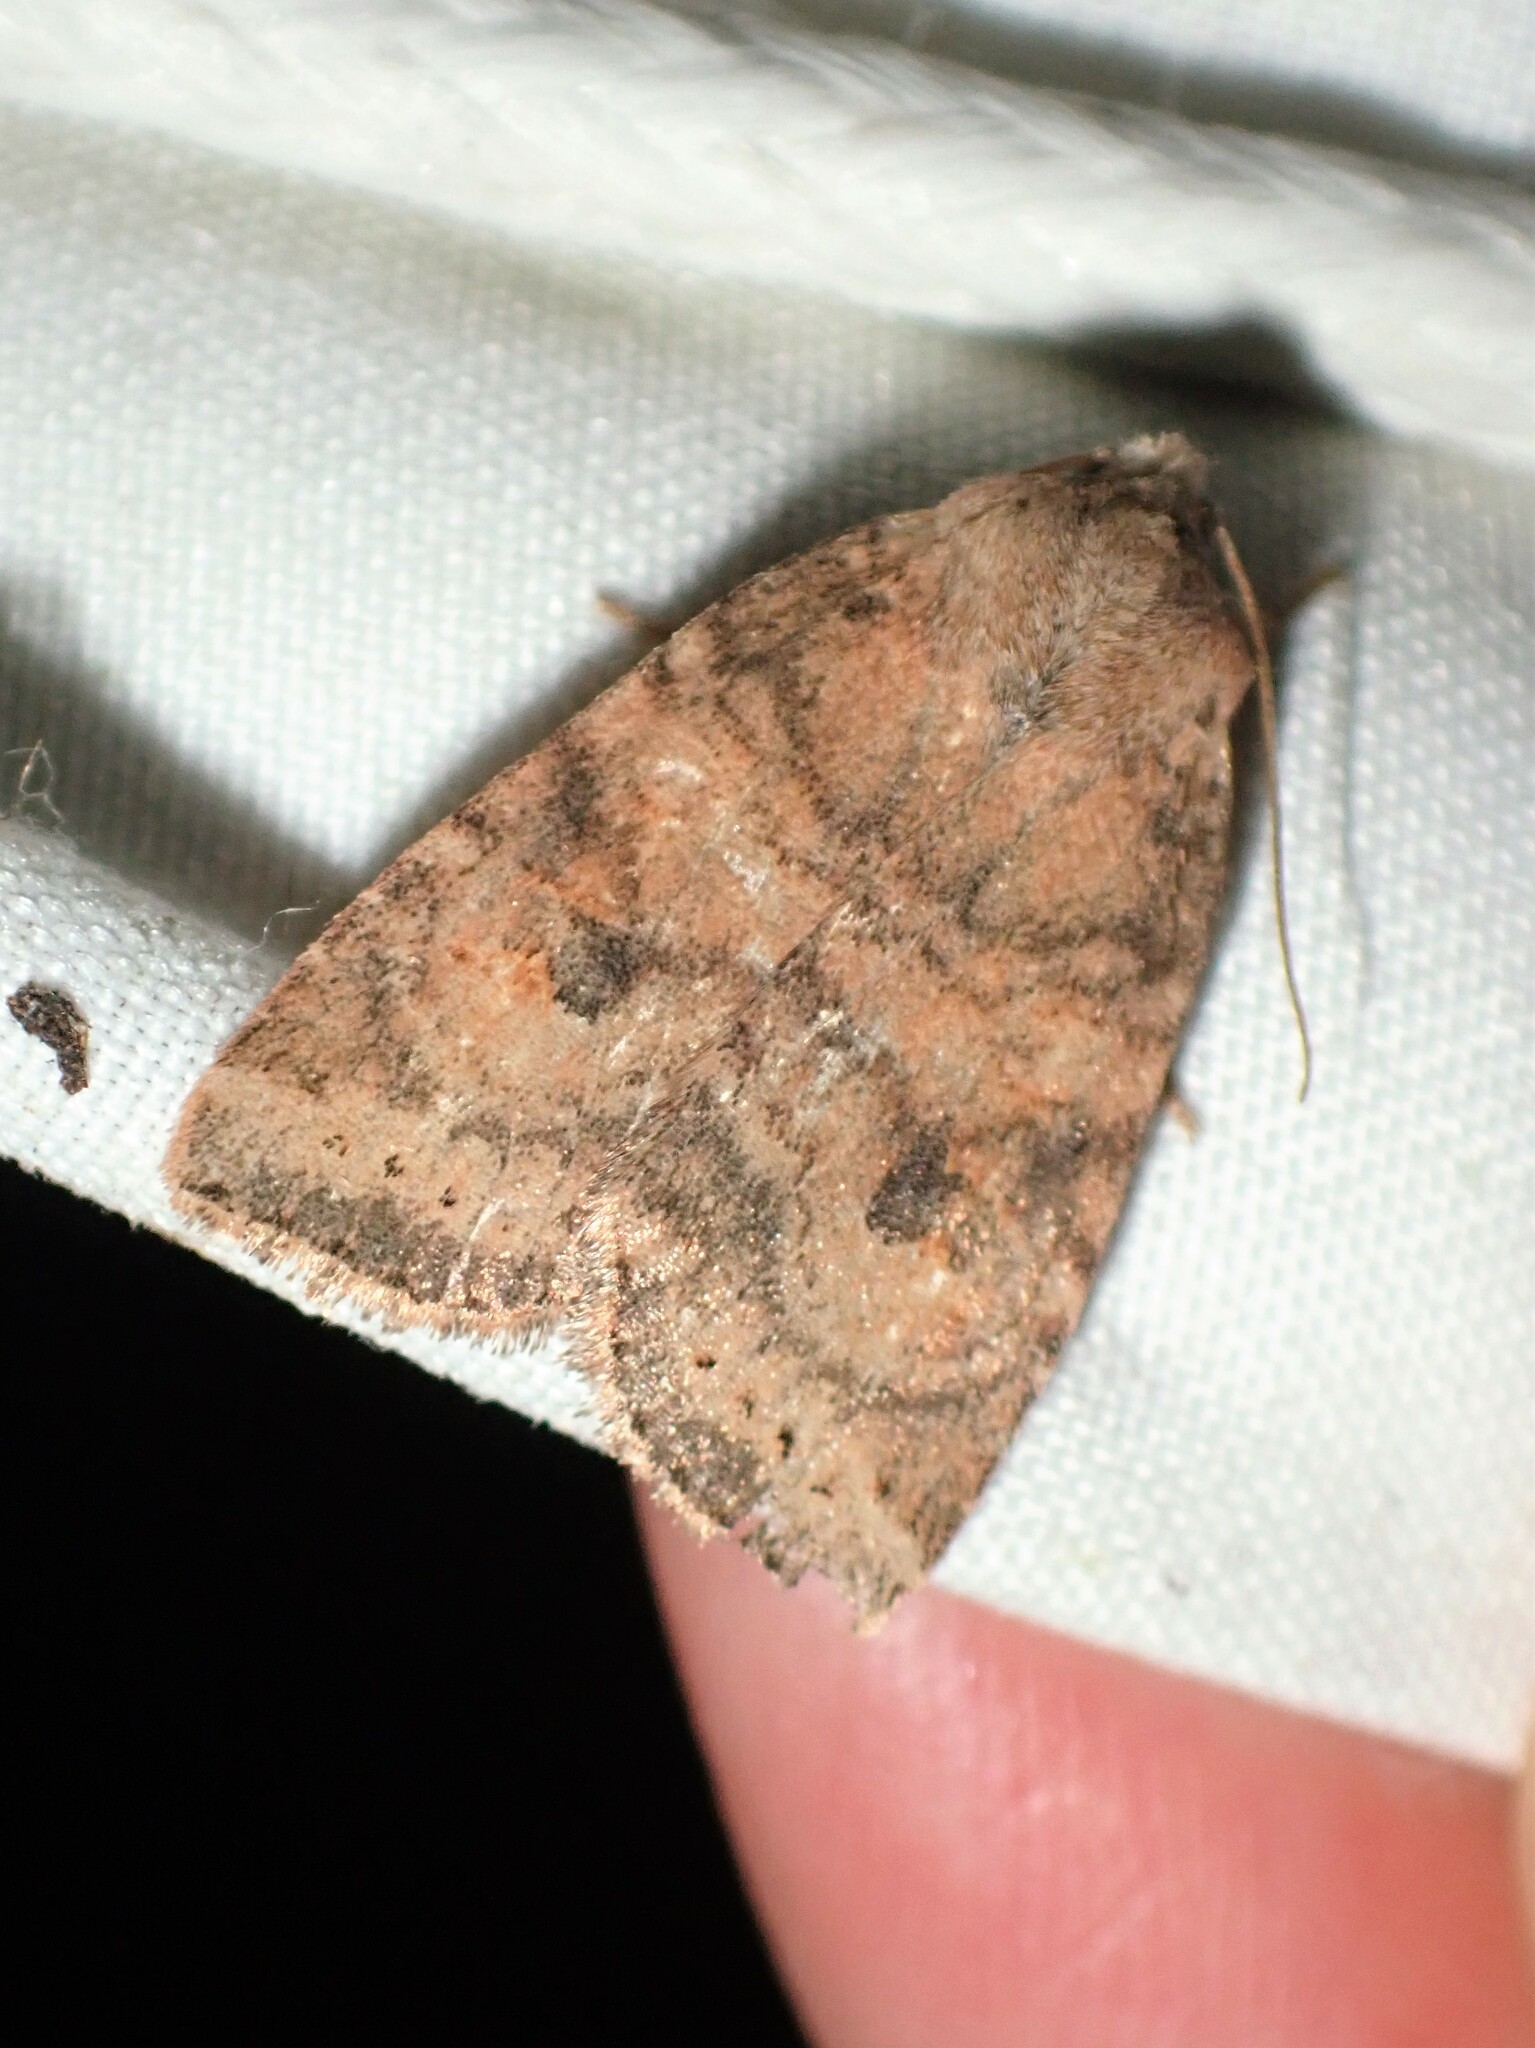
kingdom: Animalia
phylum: Arthropoda
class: Insecta
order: Lepidoptera
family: Noctuidae
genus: Anathix
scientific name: Anathix puta
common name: Puta sallow
